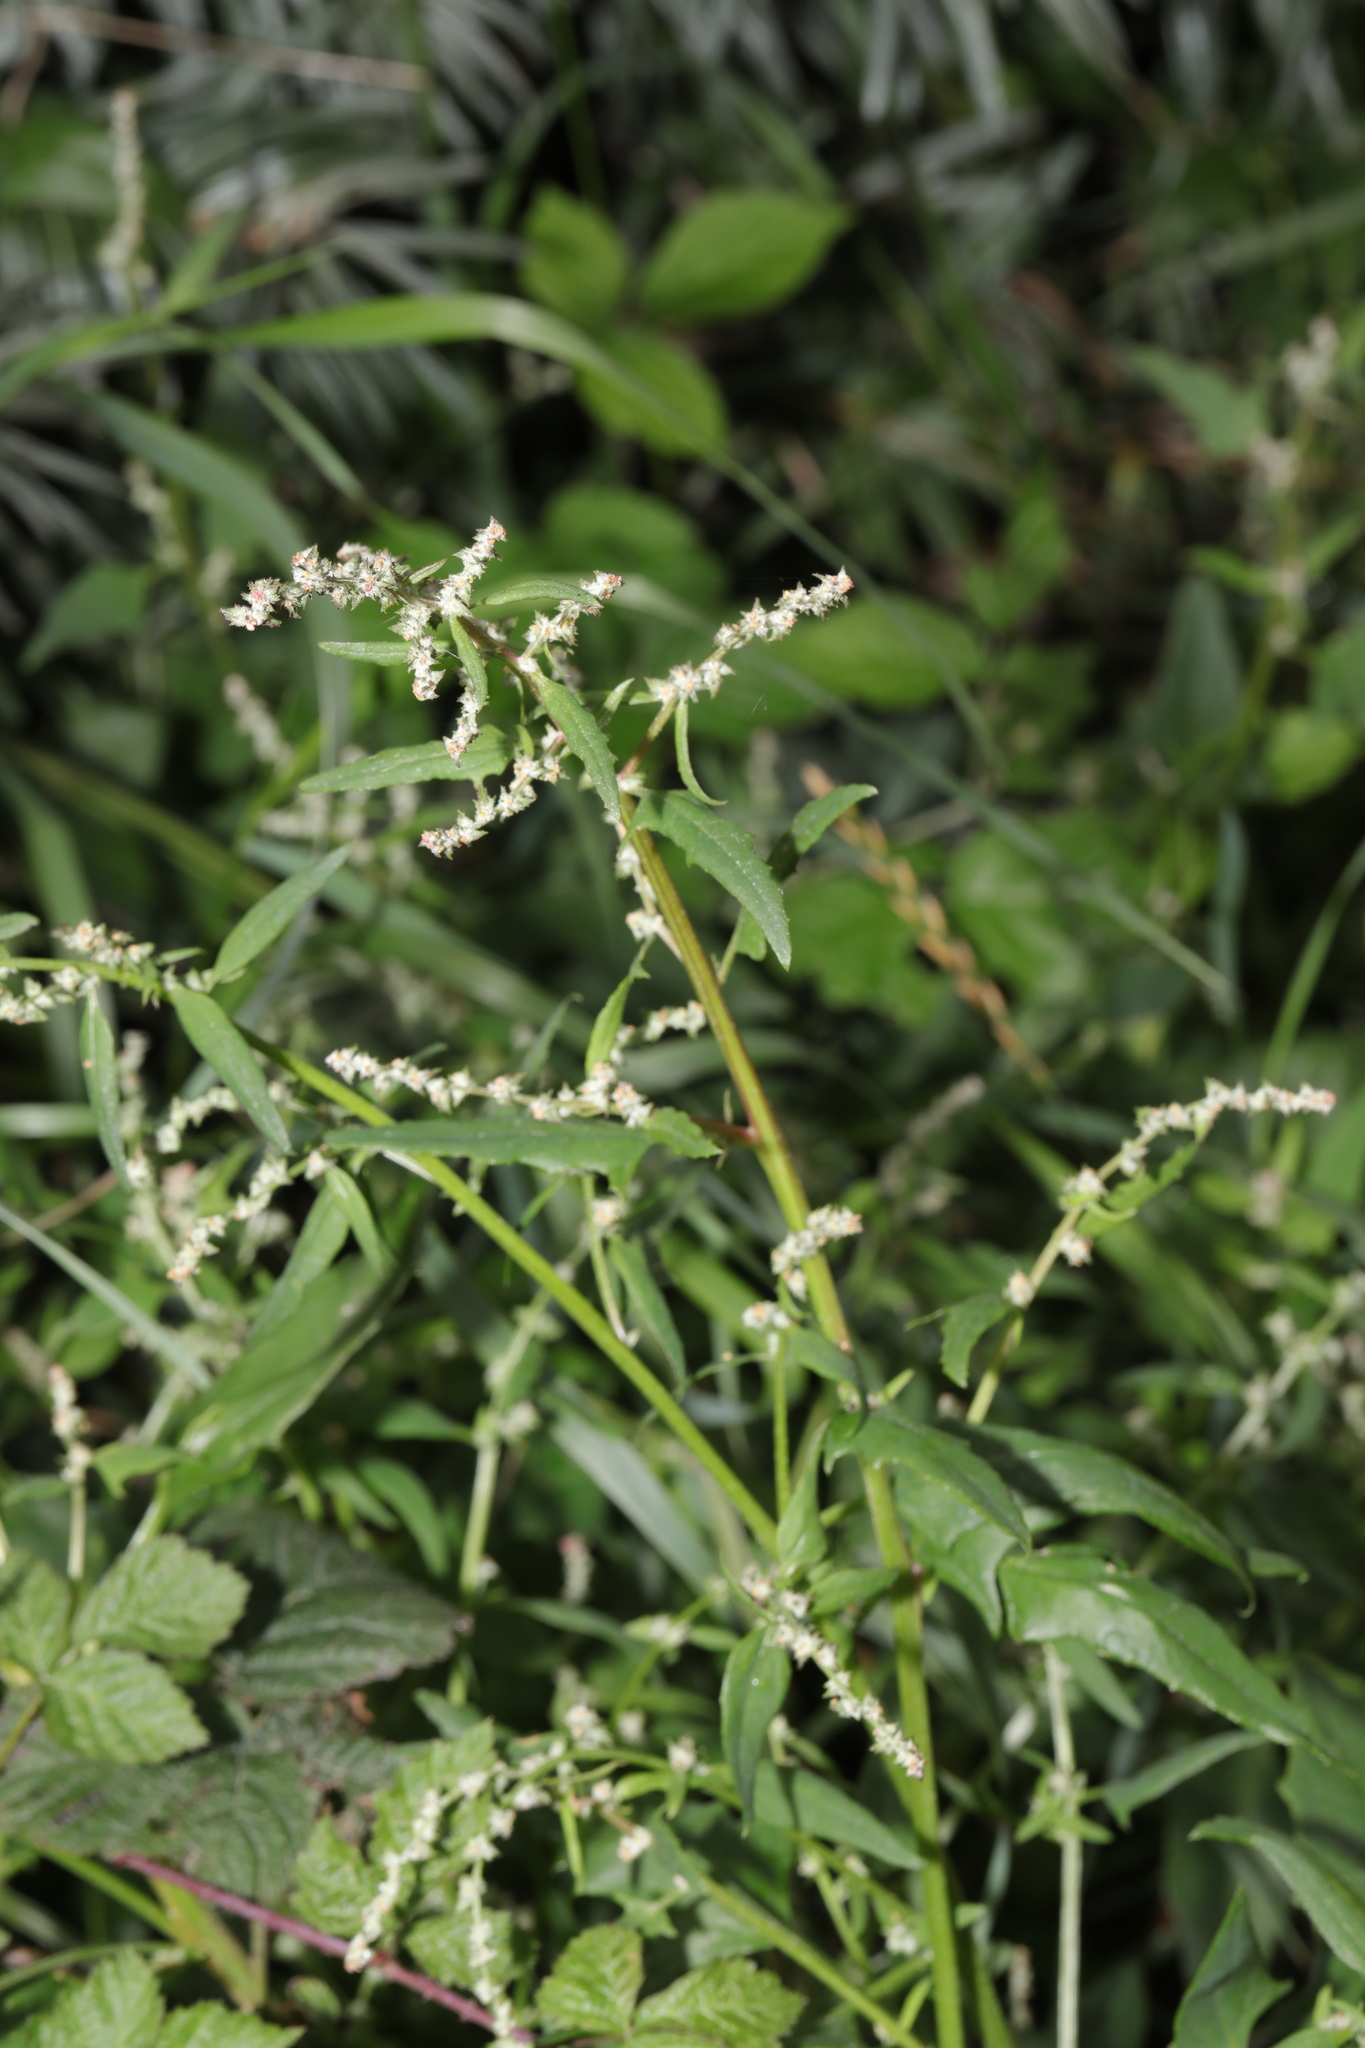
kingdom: Plantae
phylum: Tracheophyta
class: Magnoliopsida
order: Caryophyllales
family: Amaranthaceae
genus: Atriplex
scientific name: Atriplex patula
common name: Common orache
